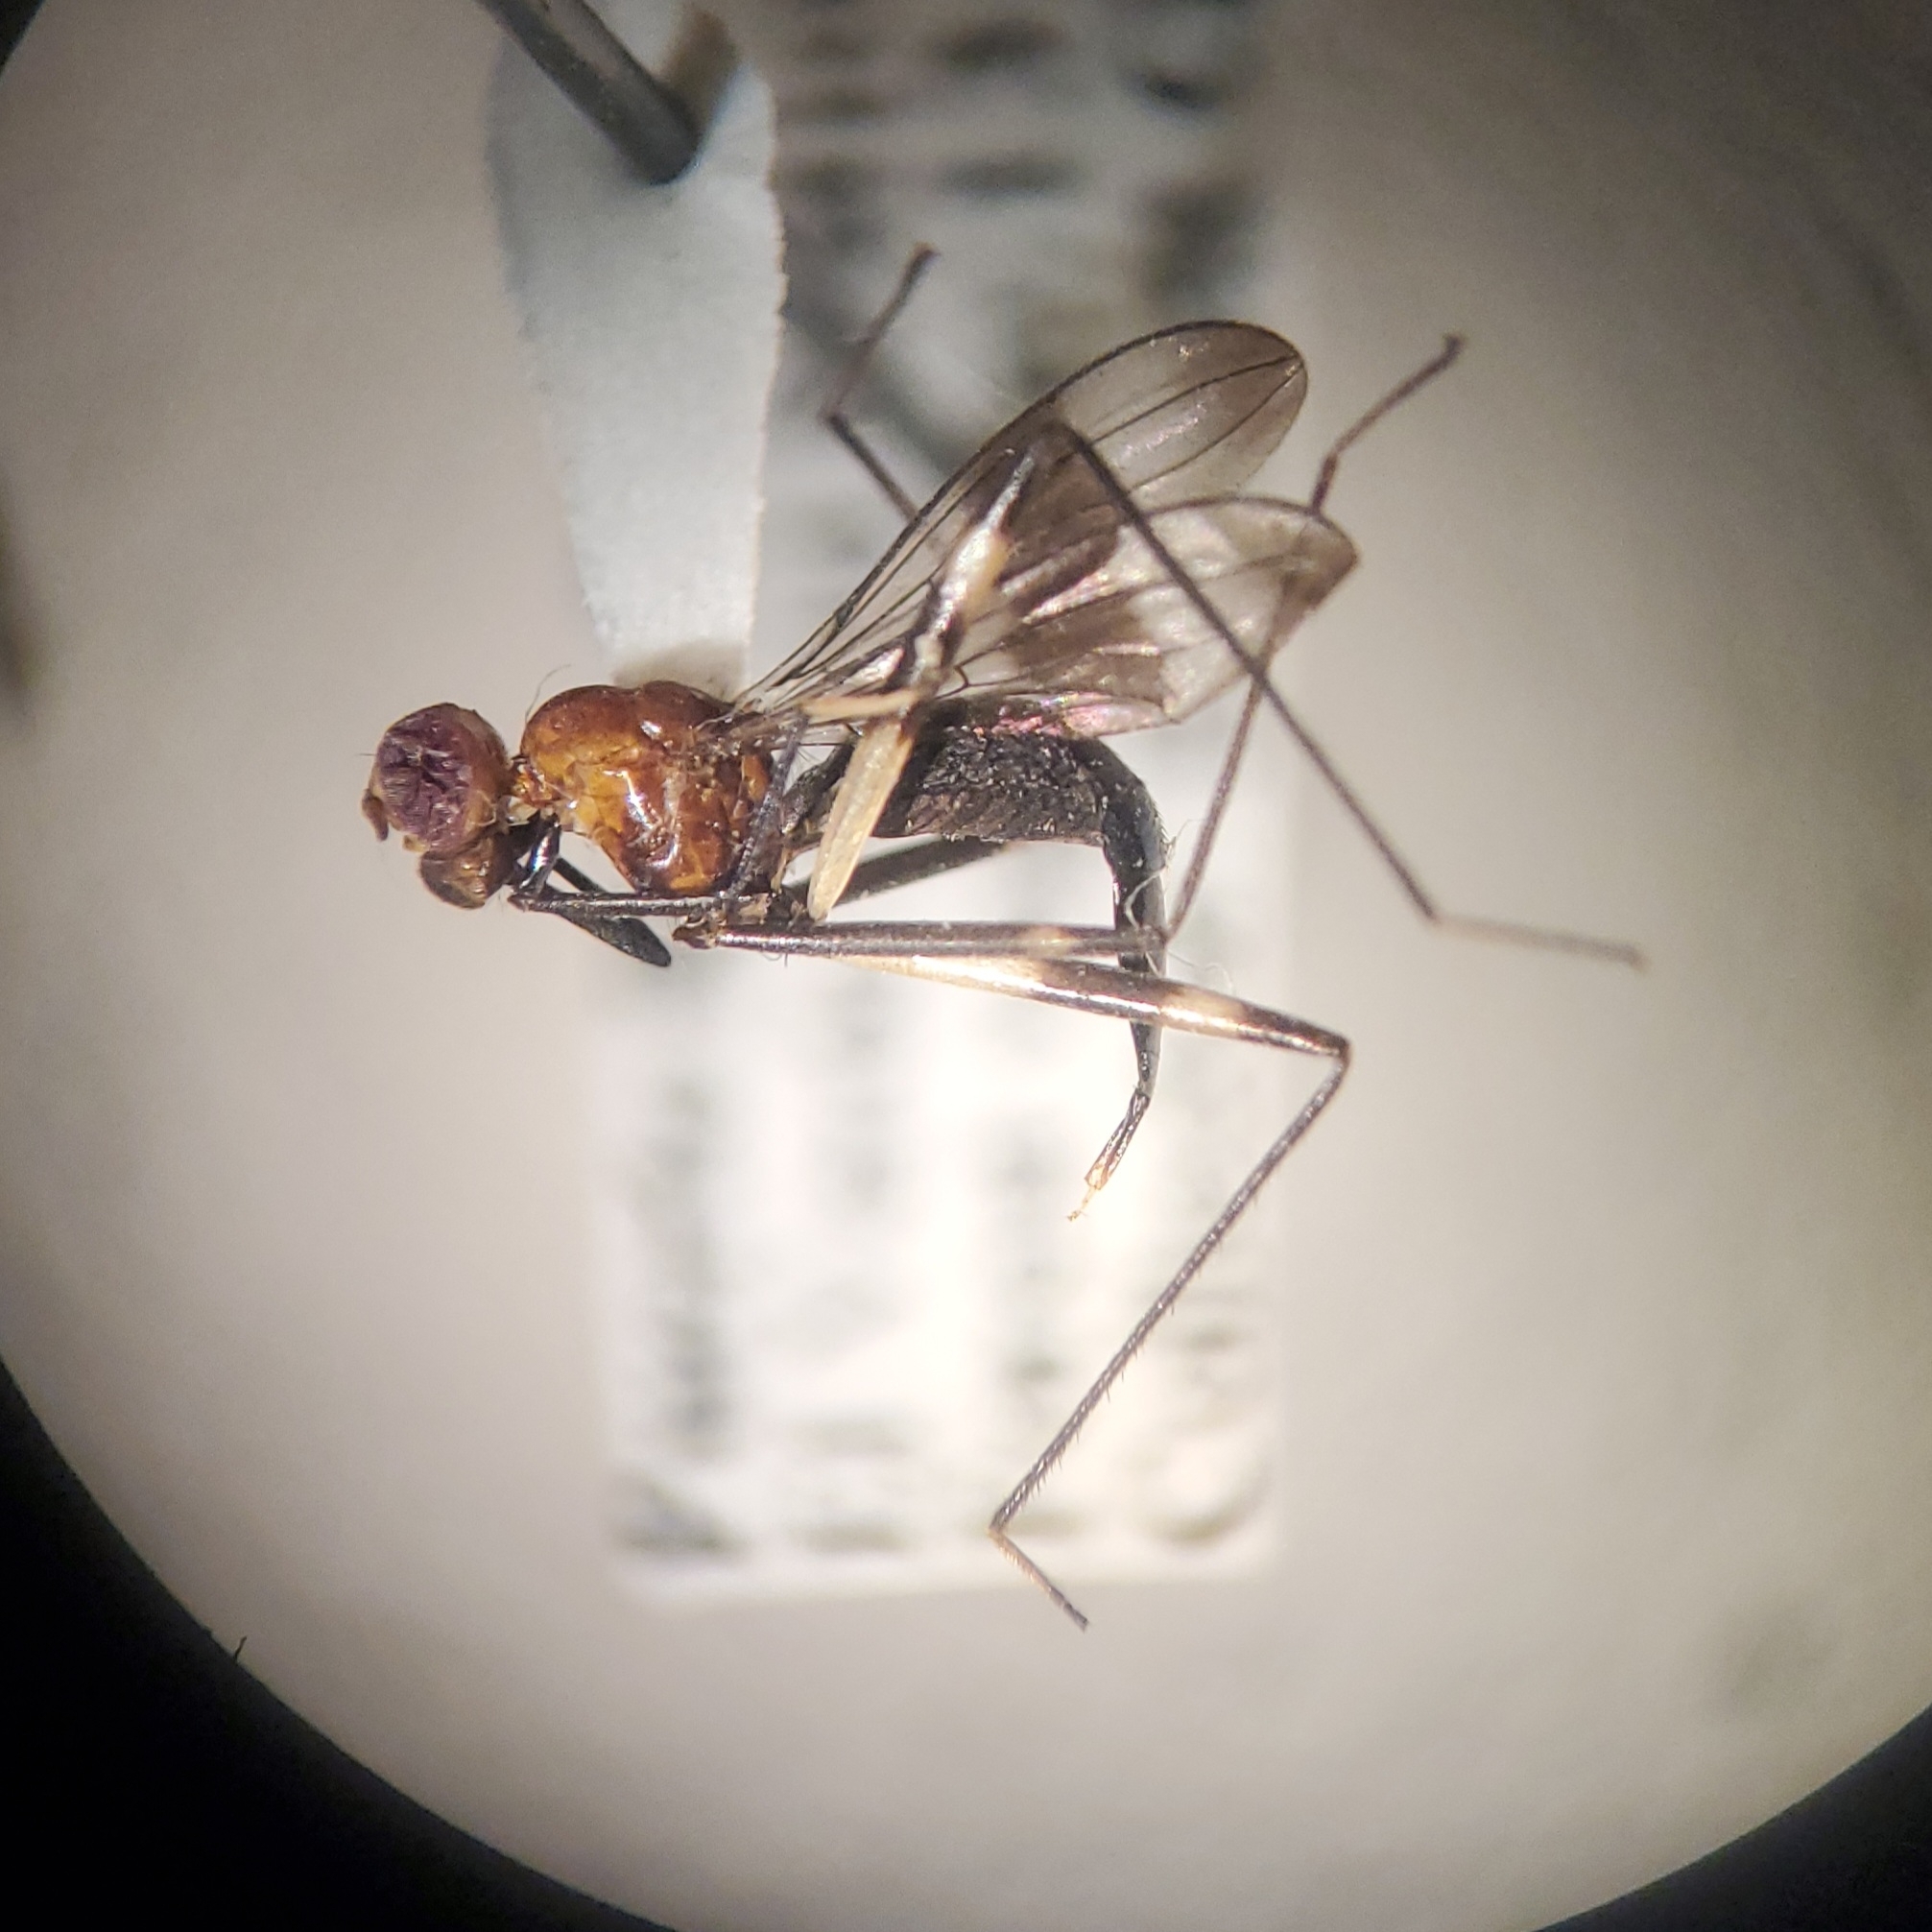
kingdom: Animalia
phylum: Arthropoda
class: Insecta
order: Diptera
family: Micropezidae
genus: Grallipeza
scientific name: Grallipeza scurra
